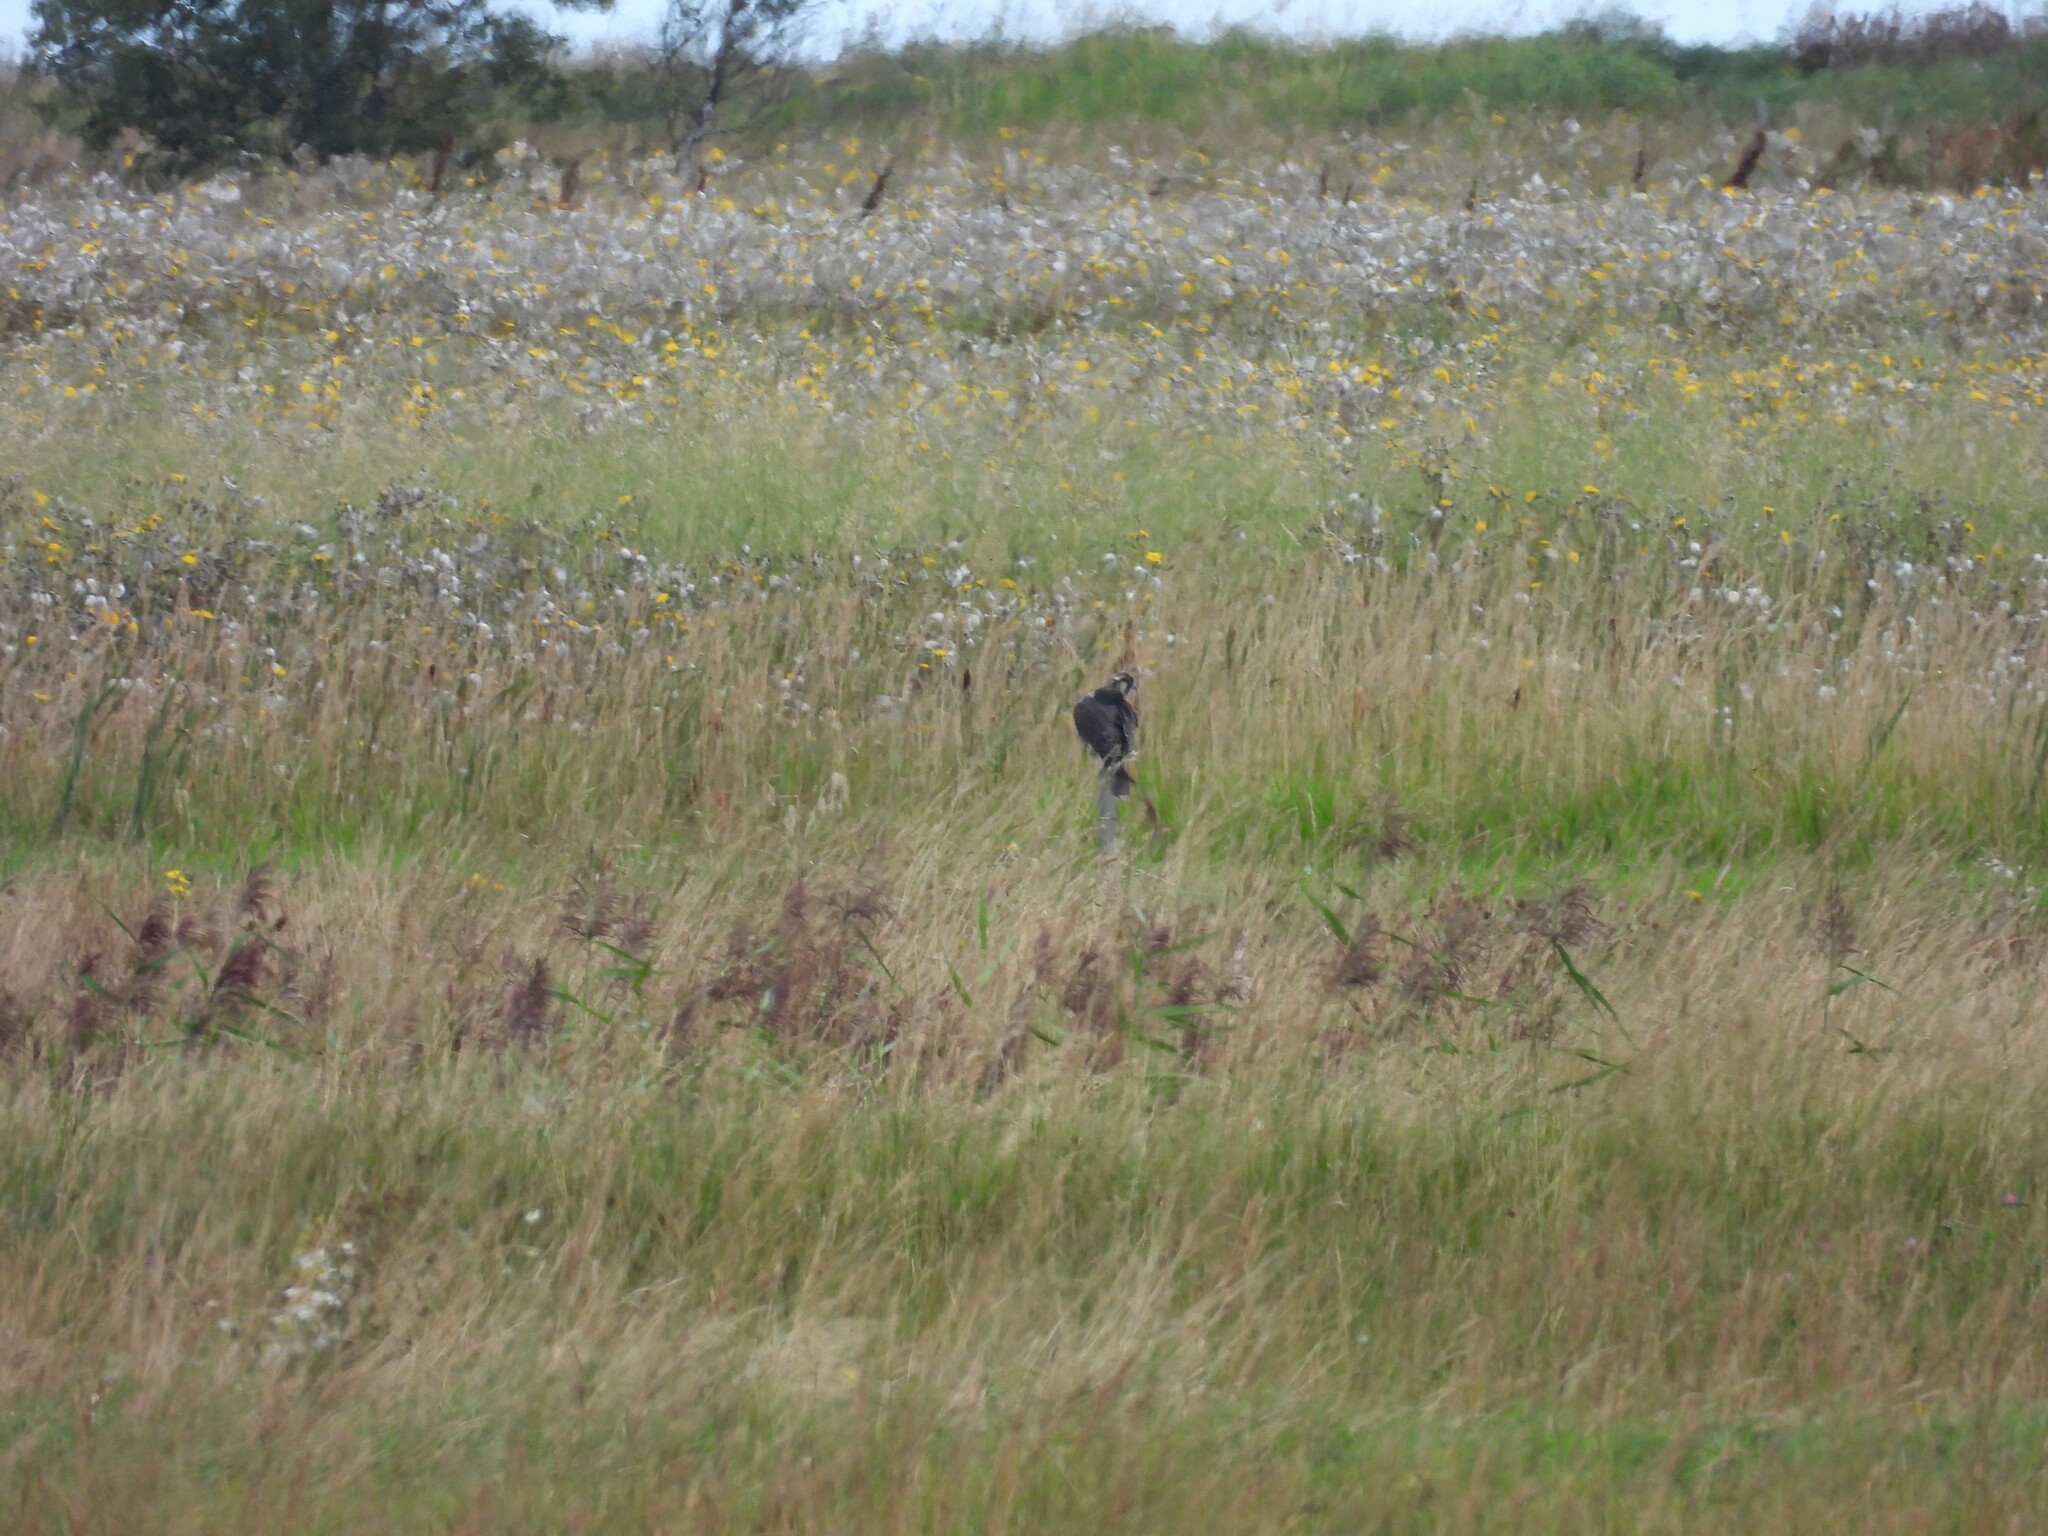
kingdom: Animalia
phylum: Chordata
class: Aves
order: Falconiformes
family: Falconidae
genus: Falco
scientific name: Falco peregrinus
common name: Peregrine falcon
